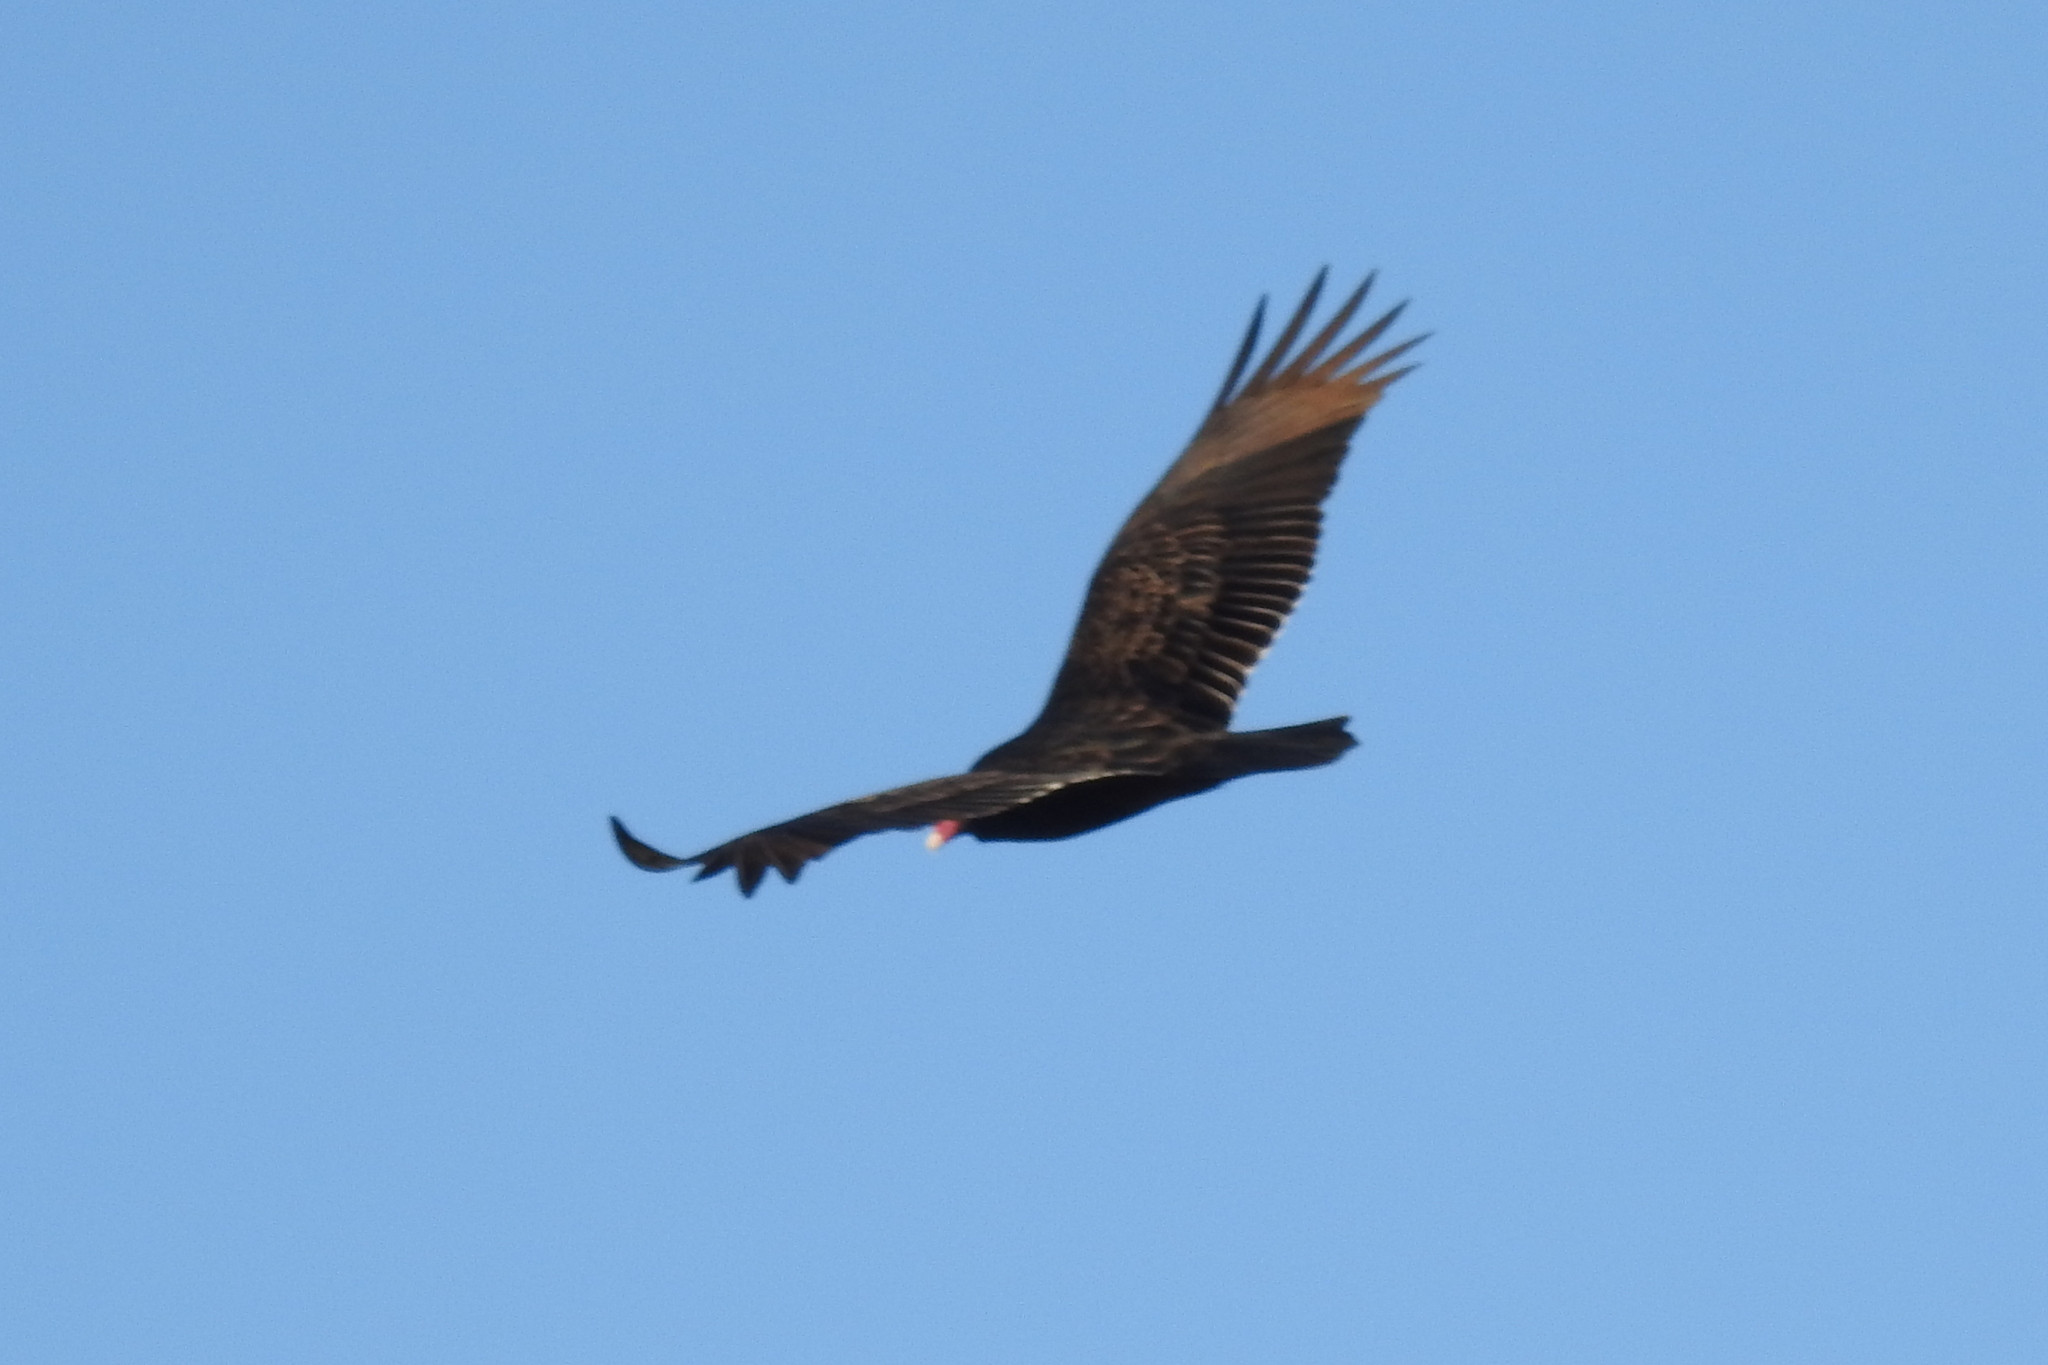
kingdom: Animalia
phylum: Chordata
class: Aves
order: Accipitriformes
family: Cathartidae
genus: Cathartes
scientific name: Cathartes aura
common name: Turkey vulture
